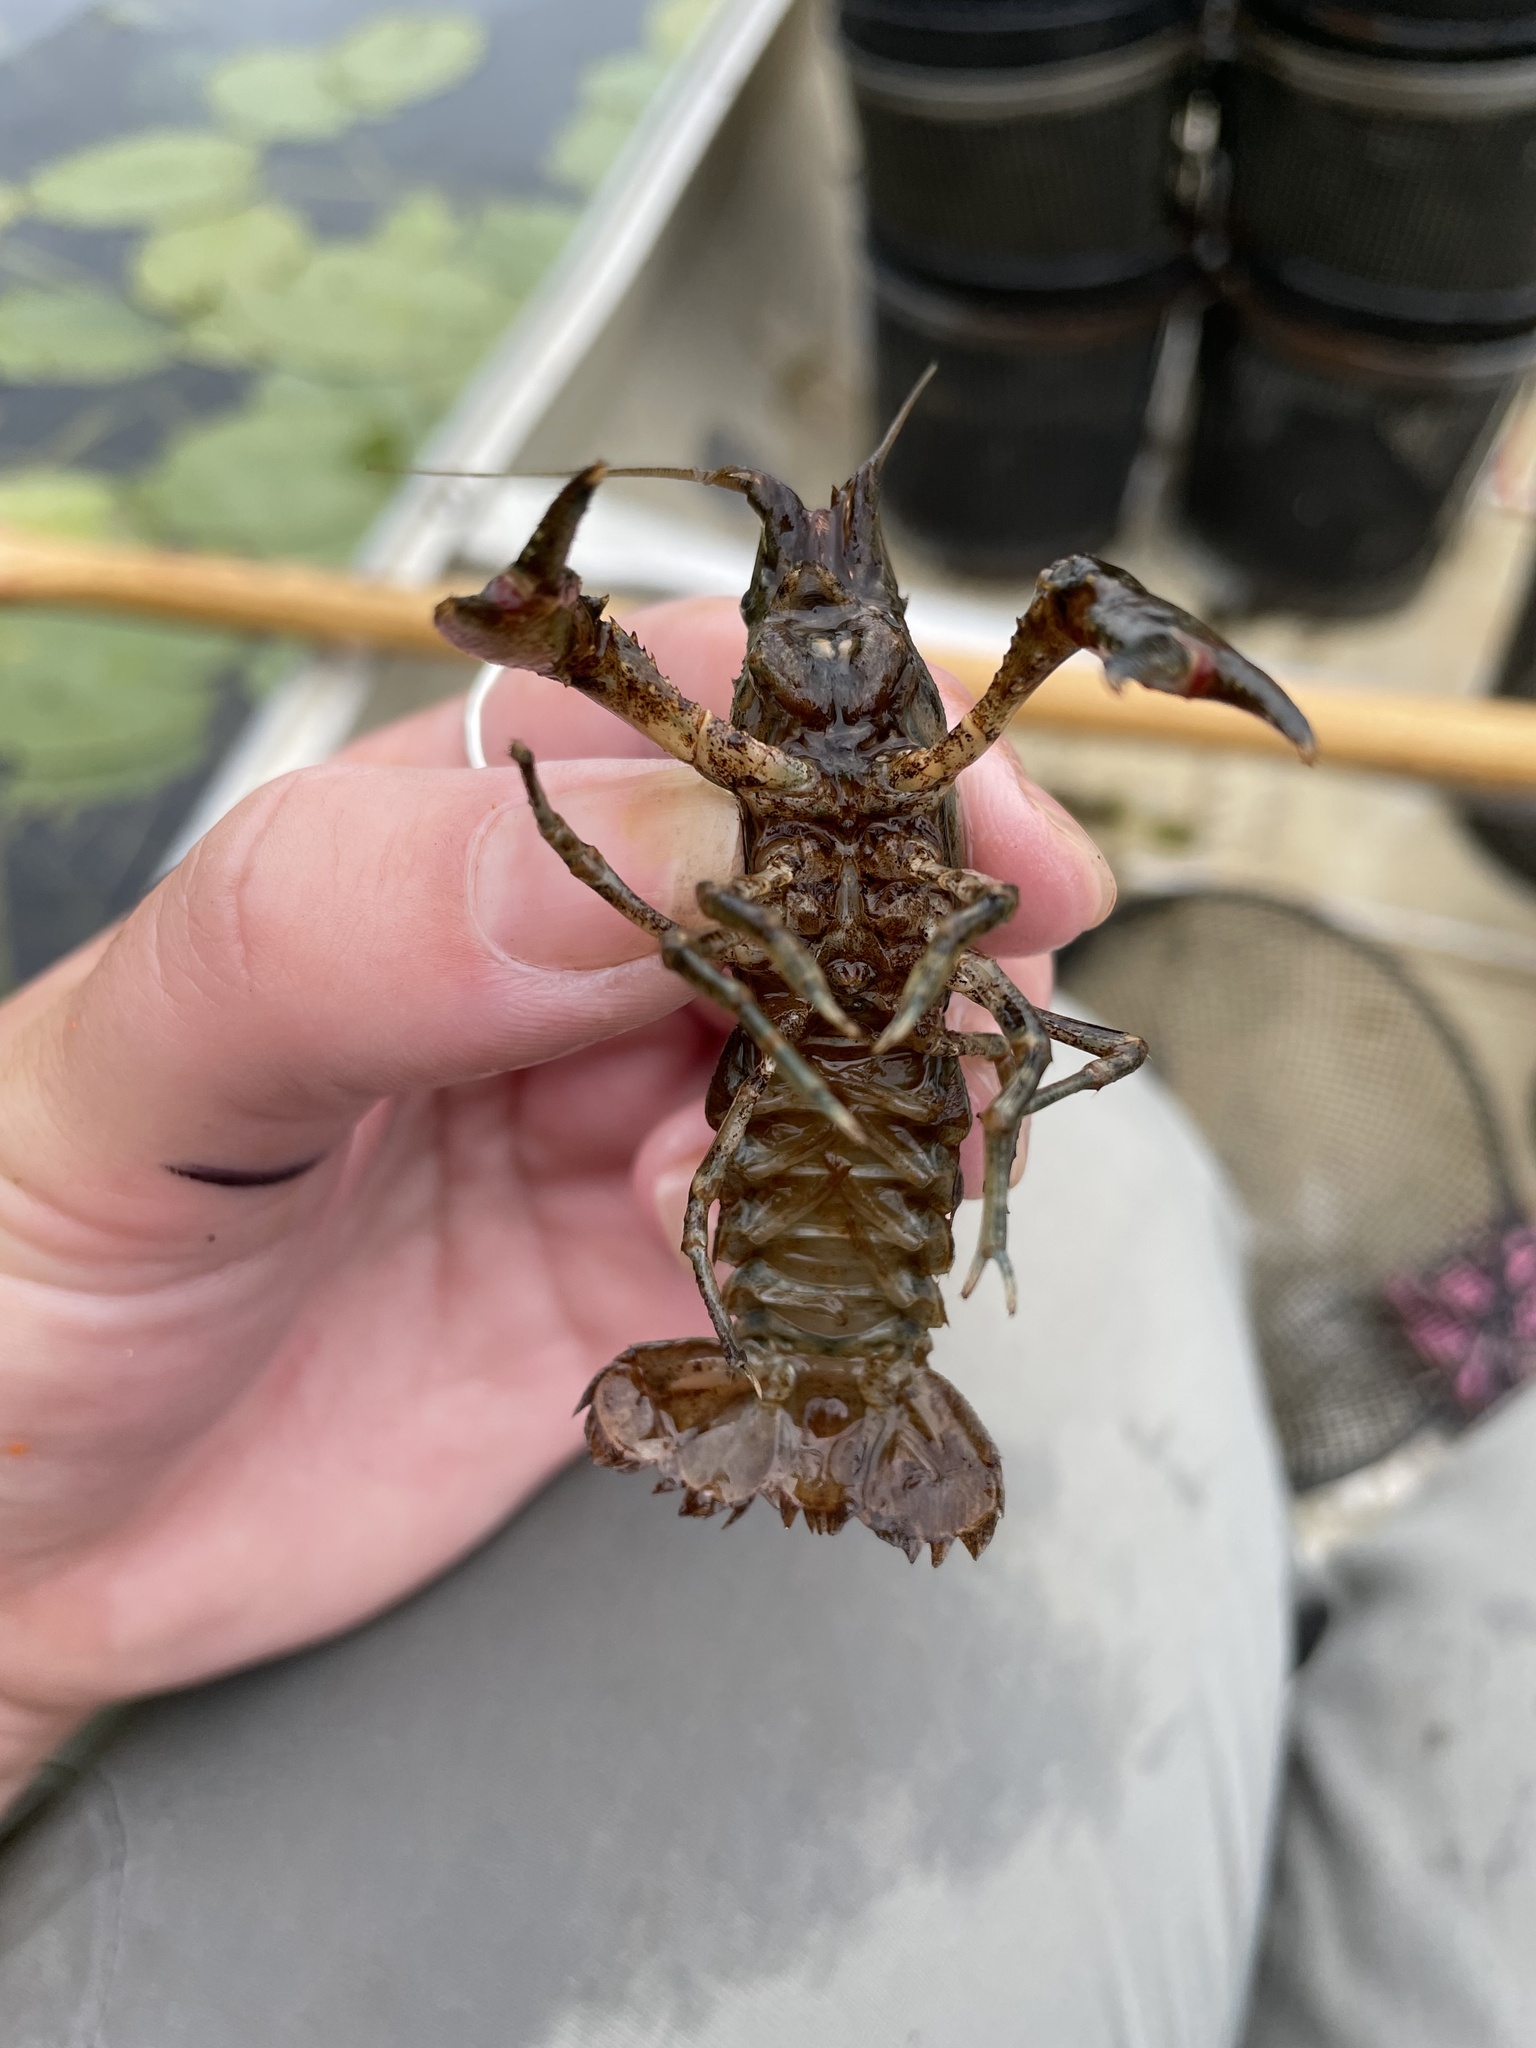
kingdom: Animalia
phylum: Arthropoda
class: Malacostraca
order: Decapoda
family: Cambaridae
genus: Faxonius
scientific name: Faxonius limosus
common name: American crayfish
